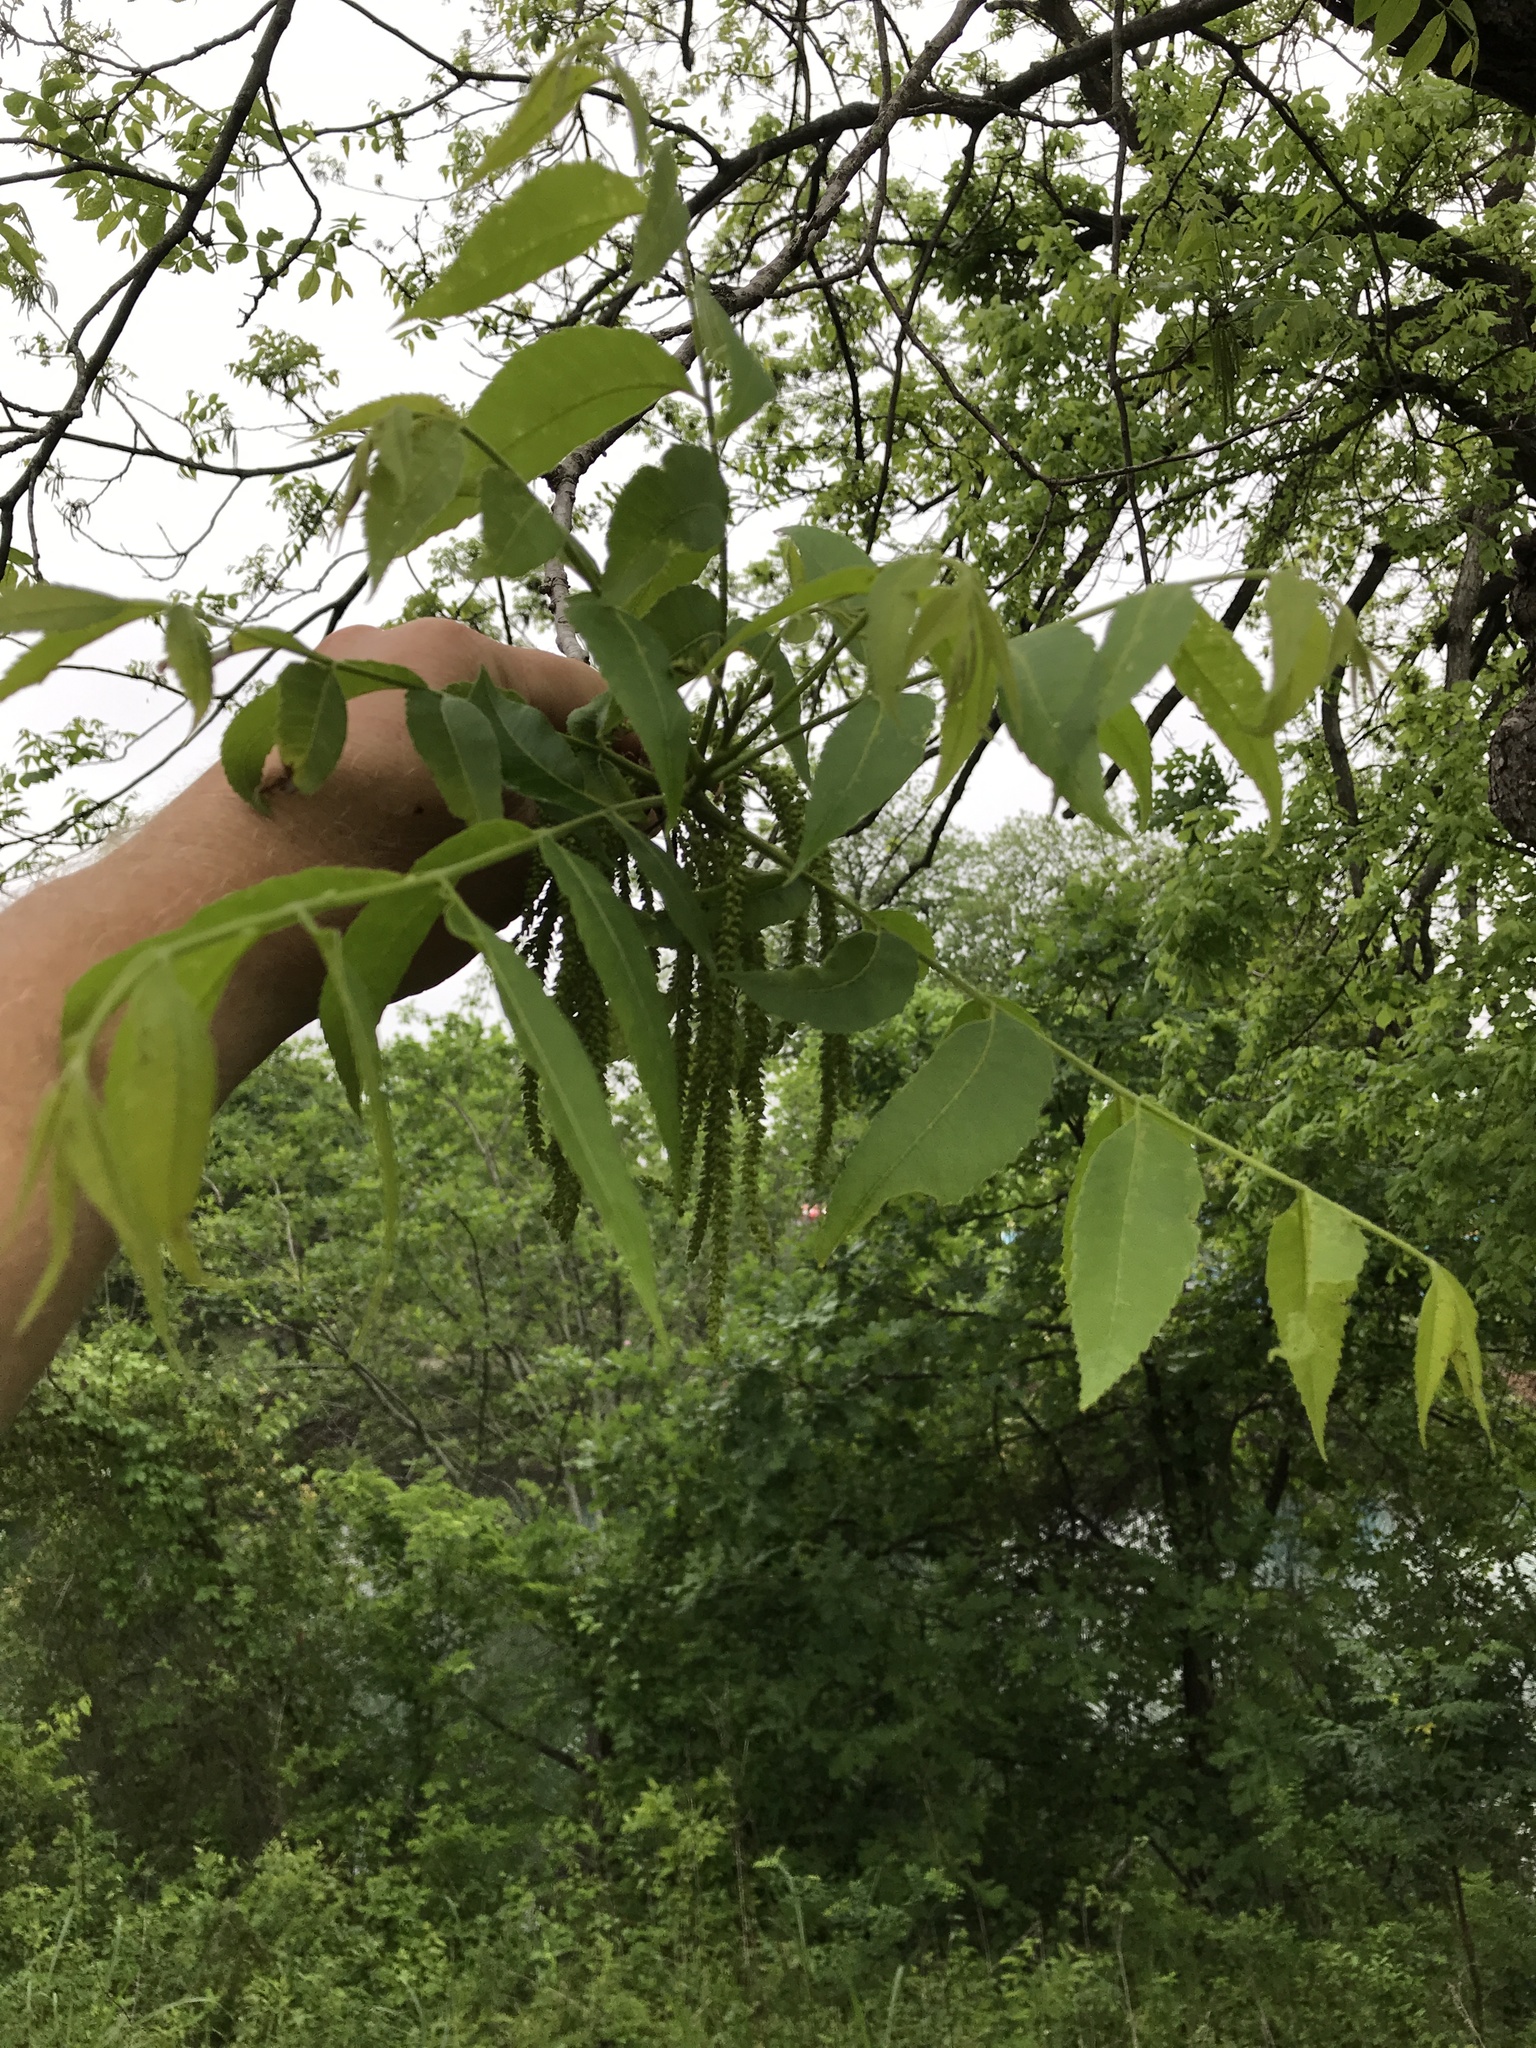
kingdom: Plantae
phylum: Tracheophyta
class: Magnoliopsida
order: Fagales
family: Juglandaceae
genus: Carya
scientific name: Carya illinoinensis
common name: Pecan
